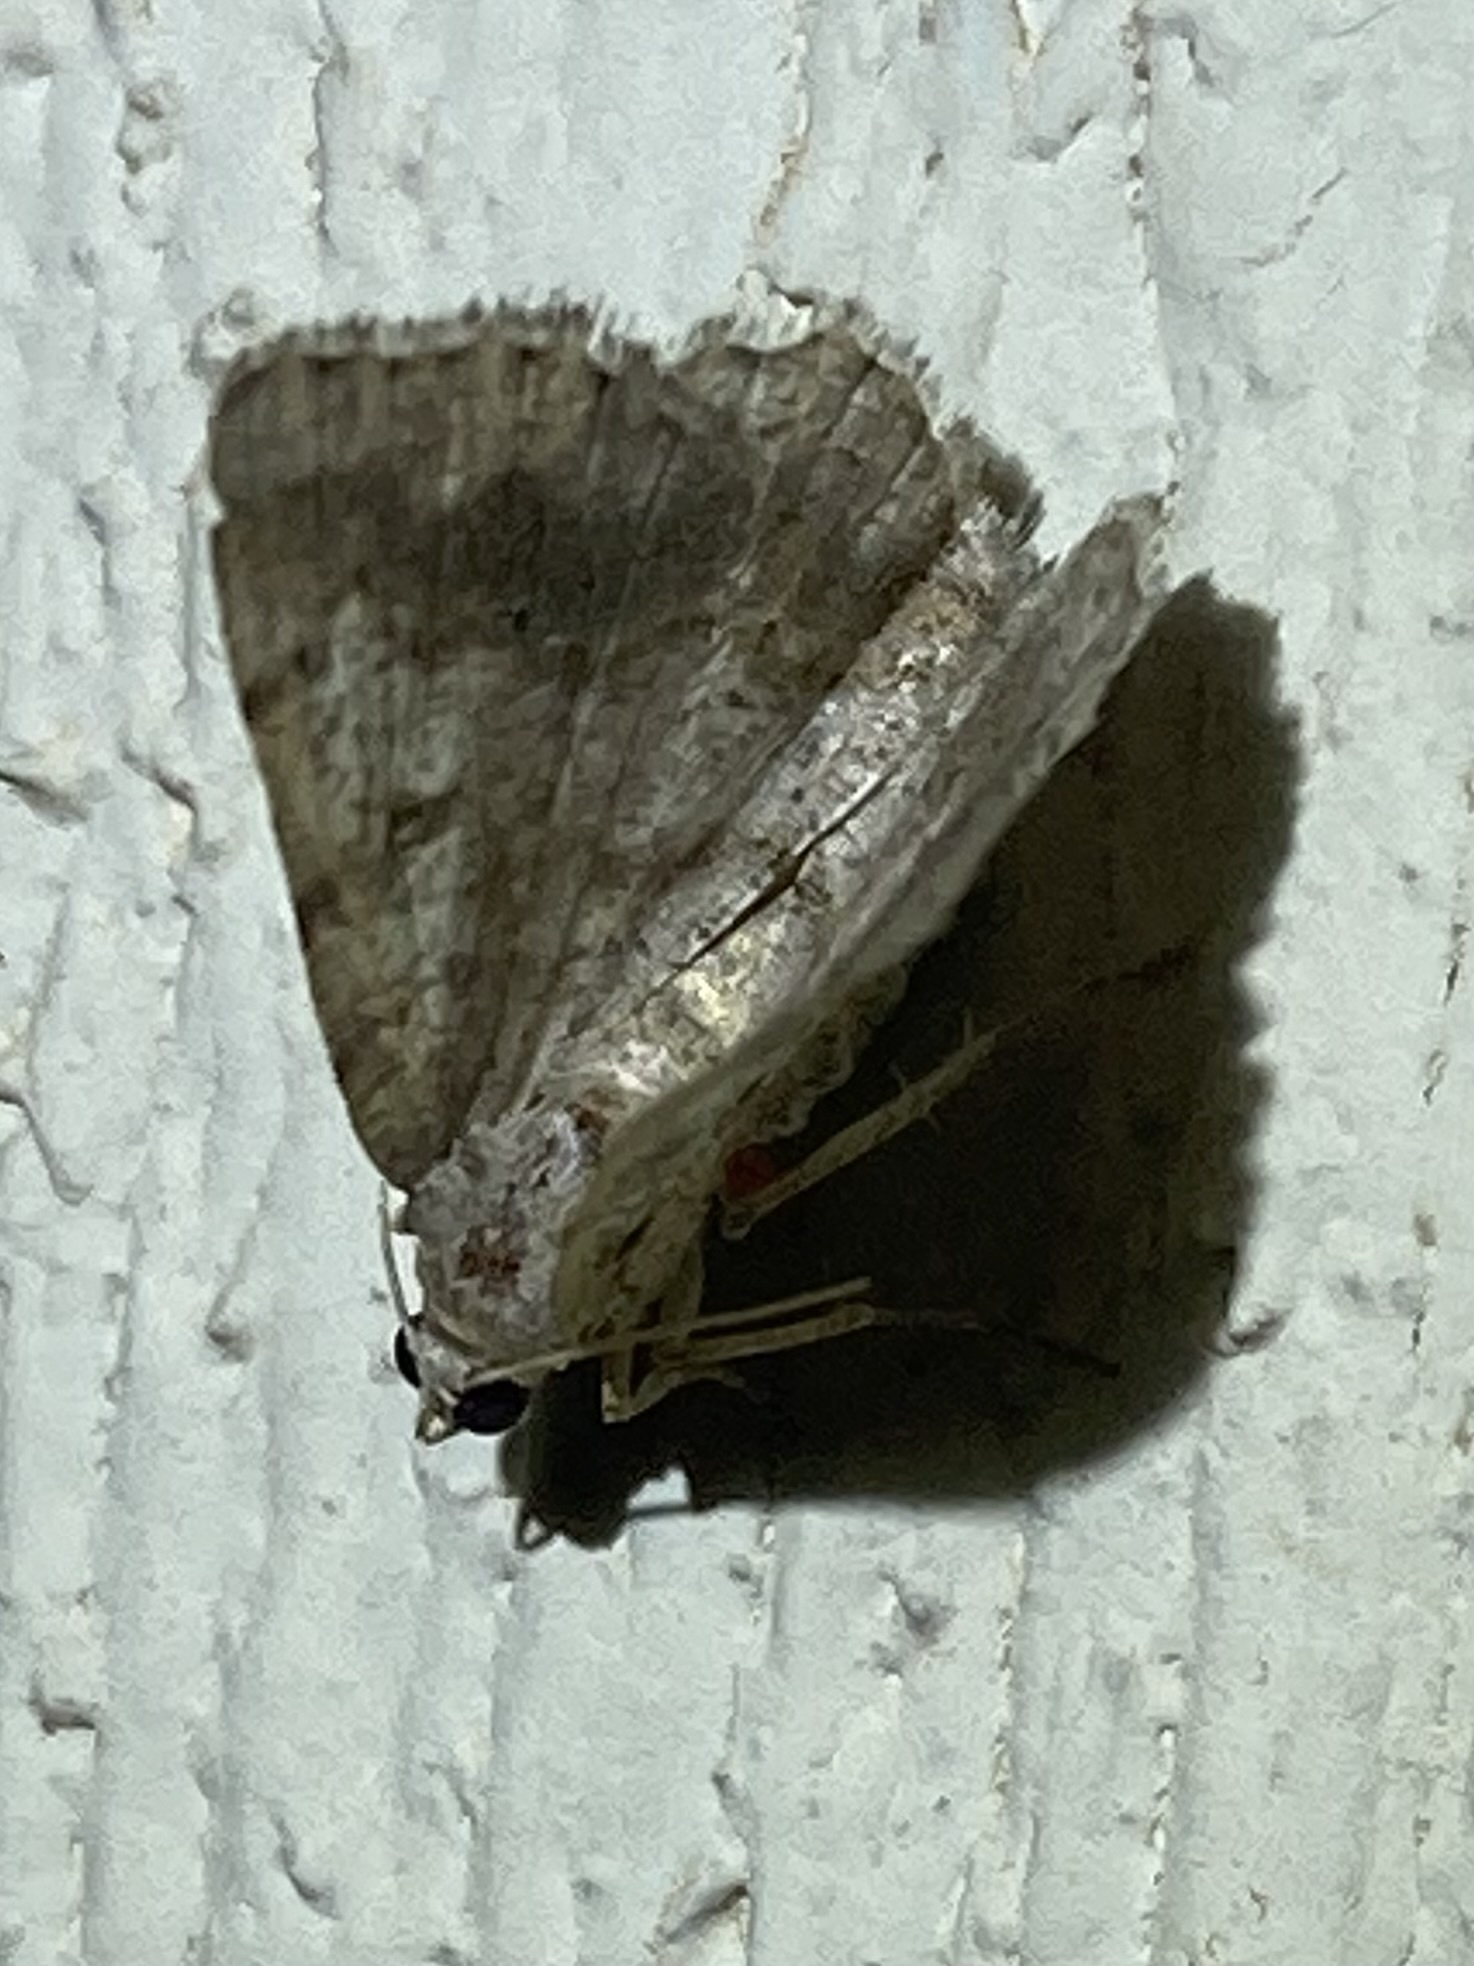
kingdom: Animalia
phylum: Arthropoda
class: Insecta
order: Lepidoptera
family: Geometridae
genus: Digrammia
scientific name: Digrammia ocellinata
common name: Faint-spotted angle
